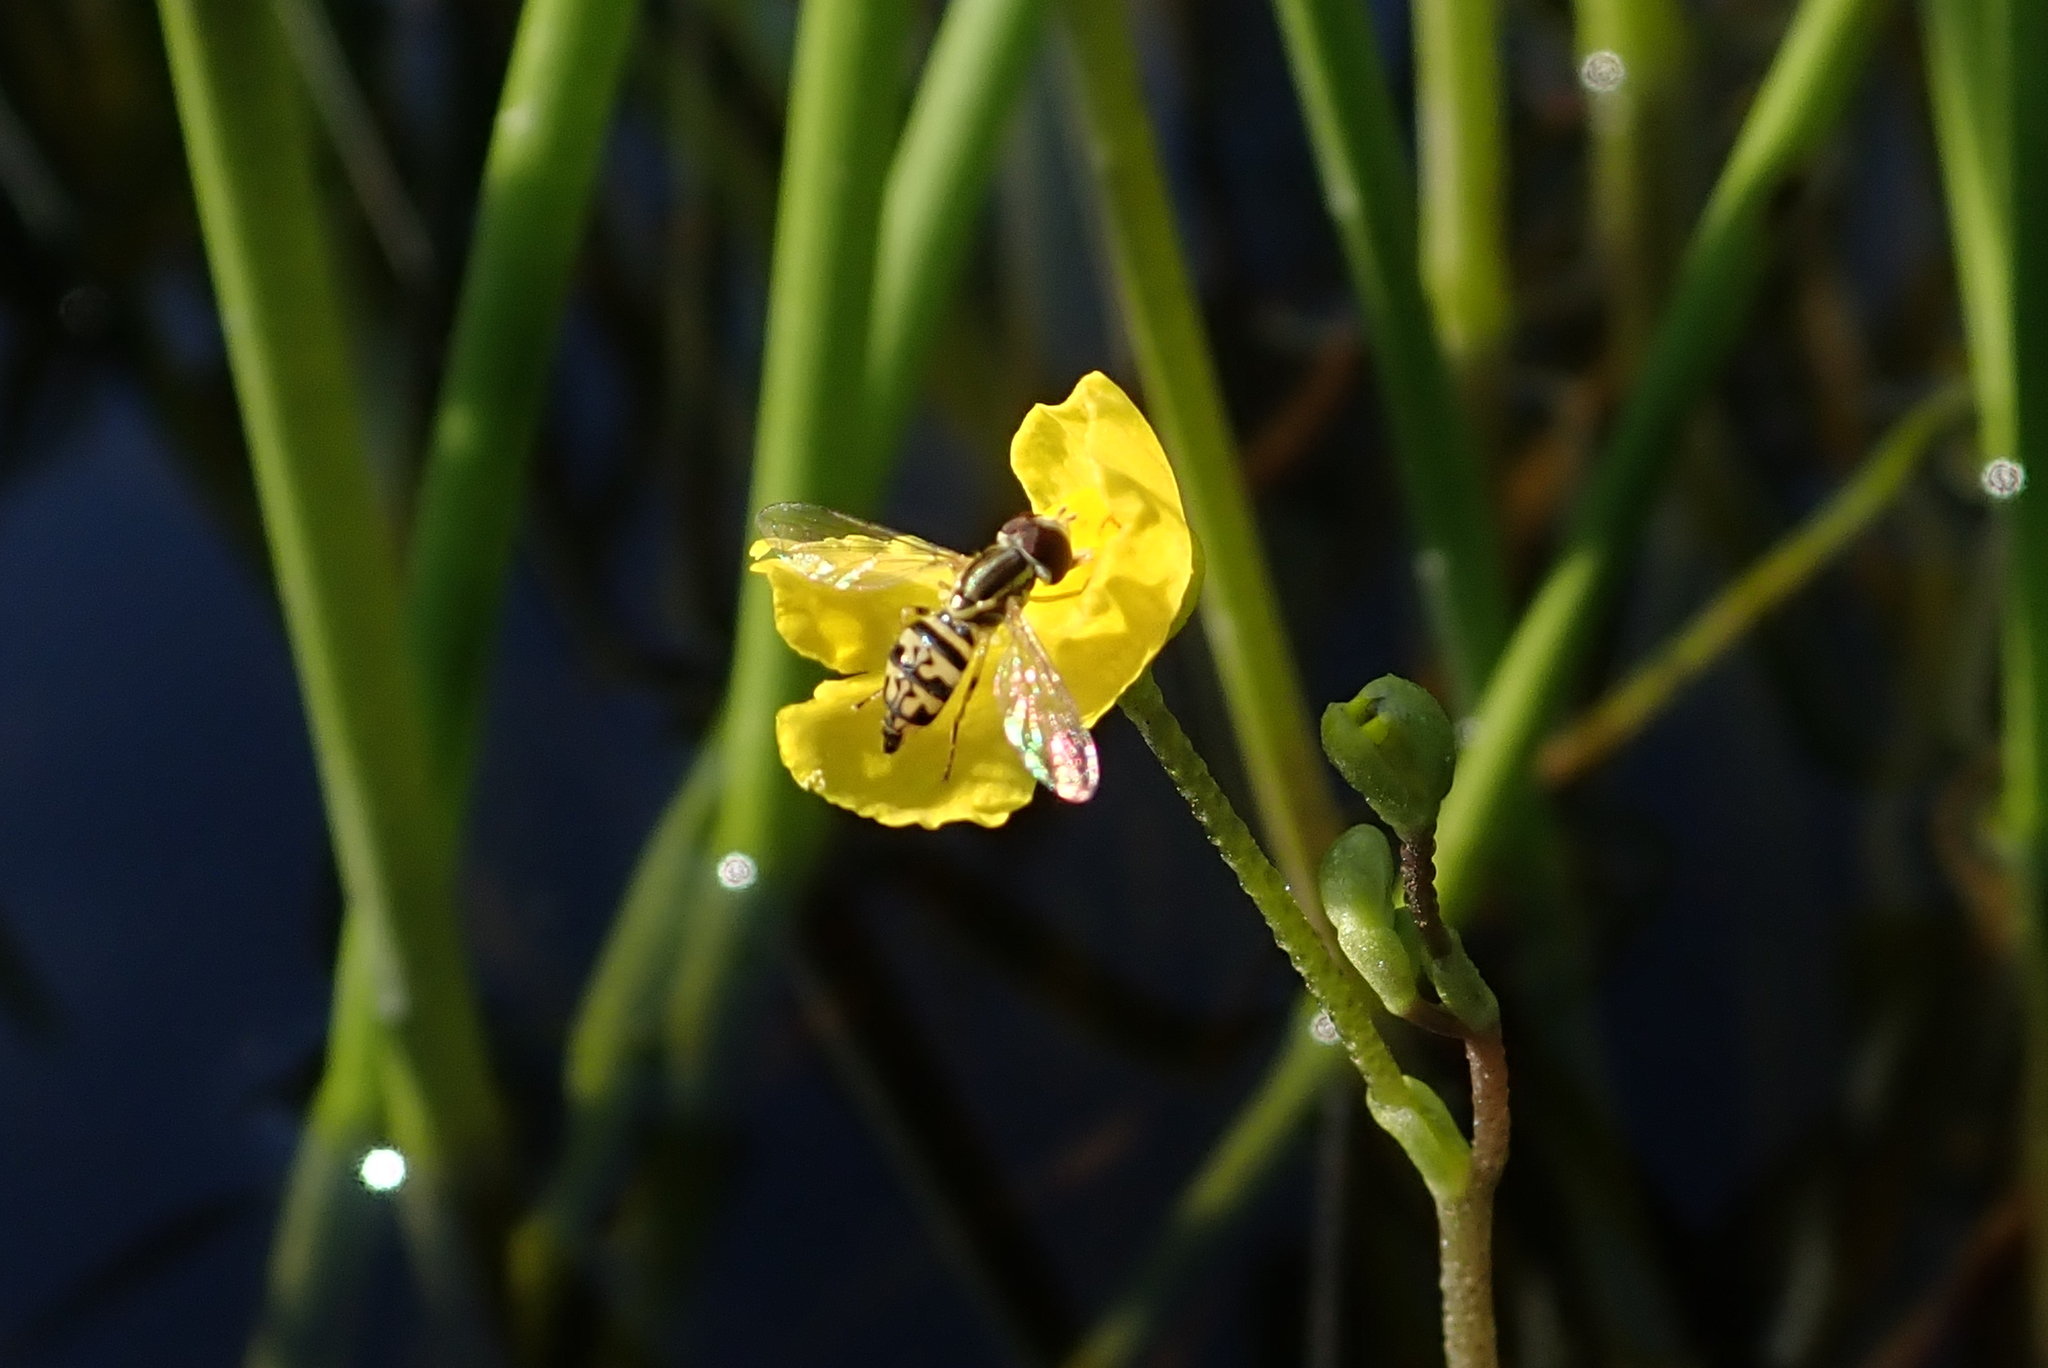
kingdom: Plantae
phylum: Tracheophyta
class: Magnoliopsida
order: Lamiales
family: Lentibulariaceae
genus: Utricularia
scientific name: Utricularia radiata
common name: Floating bladderwort
